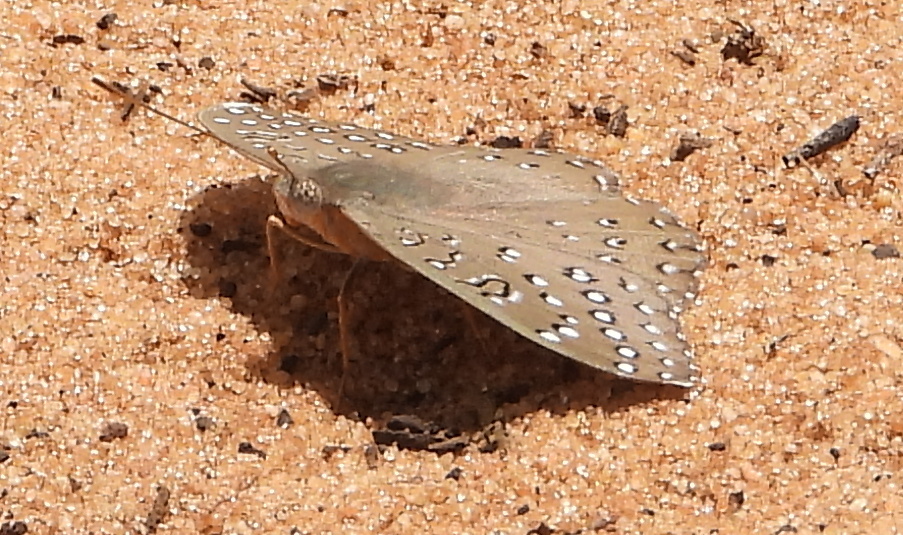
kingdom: Animalia
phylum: Arthropoda
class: Insecta
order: Lepidoptera
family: Nymphalidae
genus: Hamanumida
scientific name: Hamanumida daedalus
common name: Guinea-fowl butterfly
